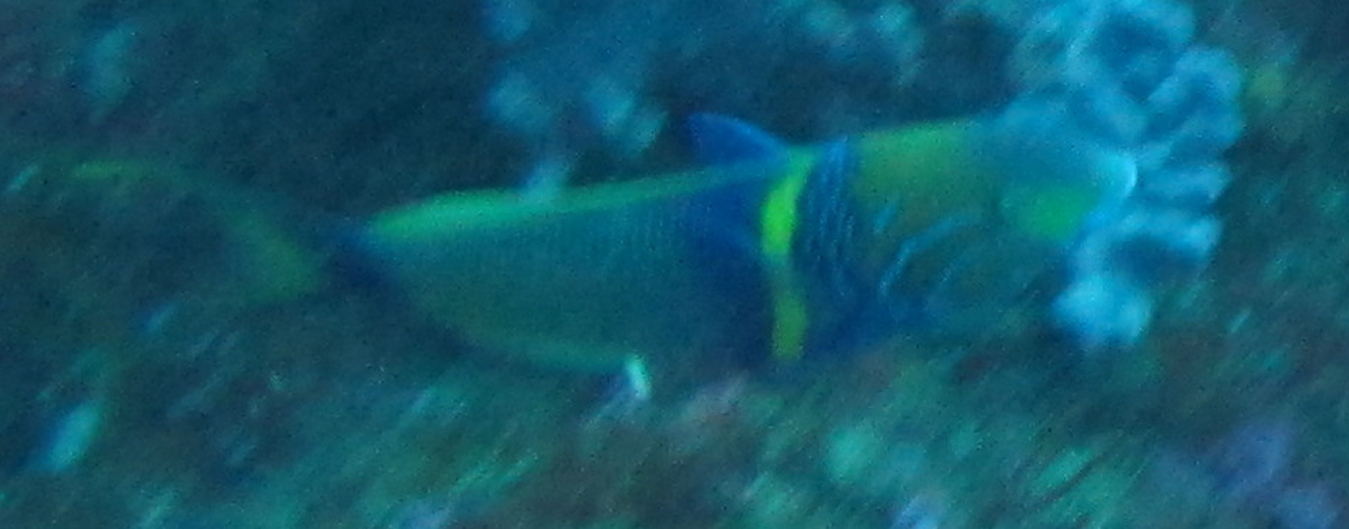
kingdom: Animalia
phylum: Chordata
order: Perciformes
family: Labridae
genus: Thalassoma
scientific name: Thalassoma hebraicum
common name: Goldbar wrasse
